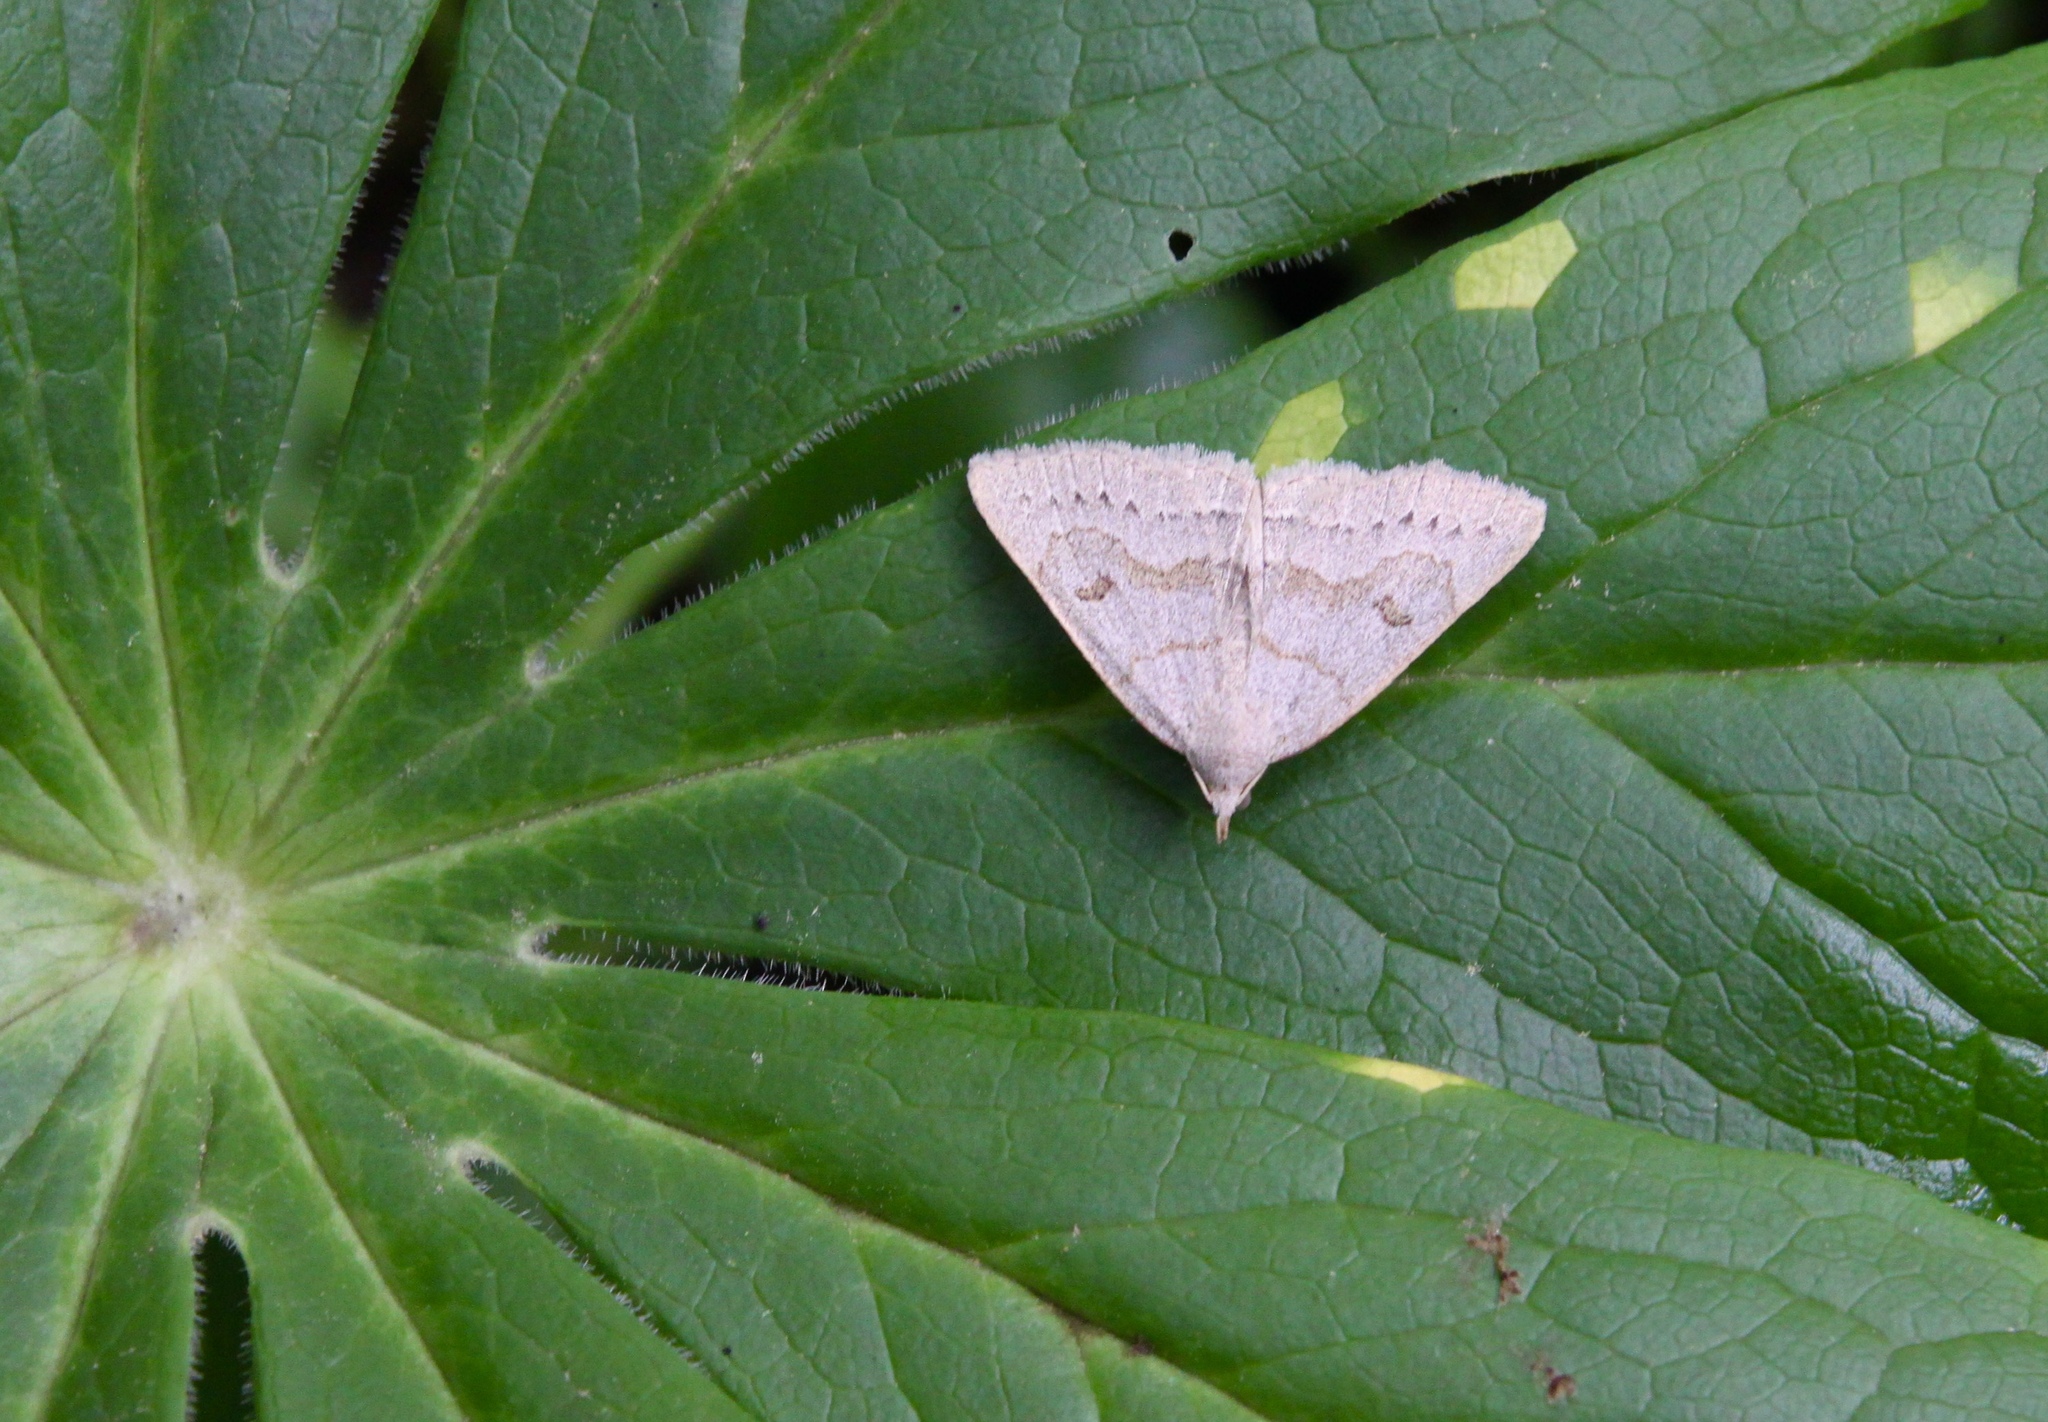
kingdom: Animalia
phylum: Arthropoda
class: Insecta
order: Lepidoptera
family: Erebidae
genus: Macrochilo
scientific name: Macrochilo morbidalis
